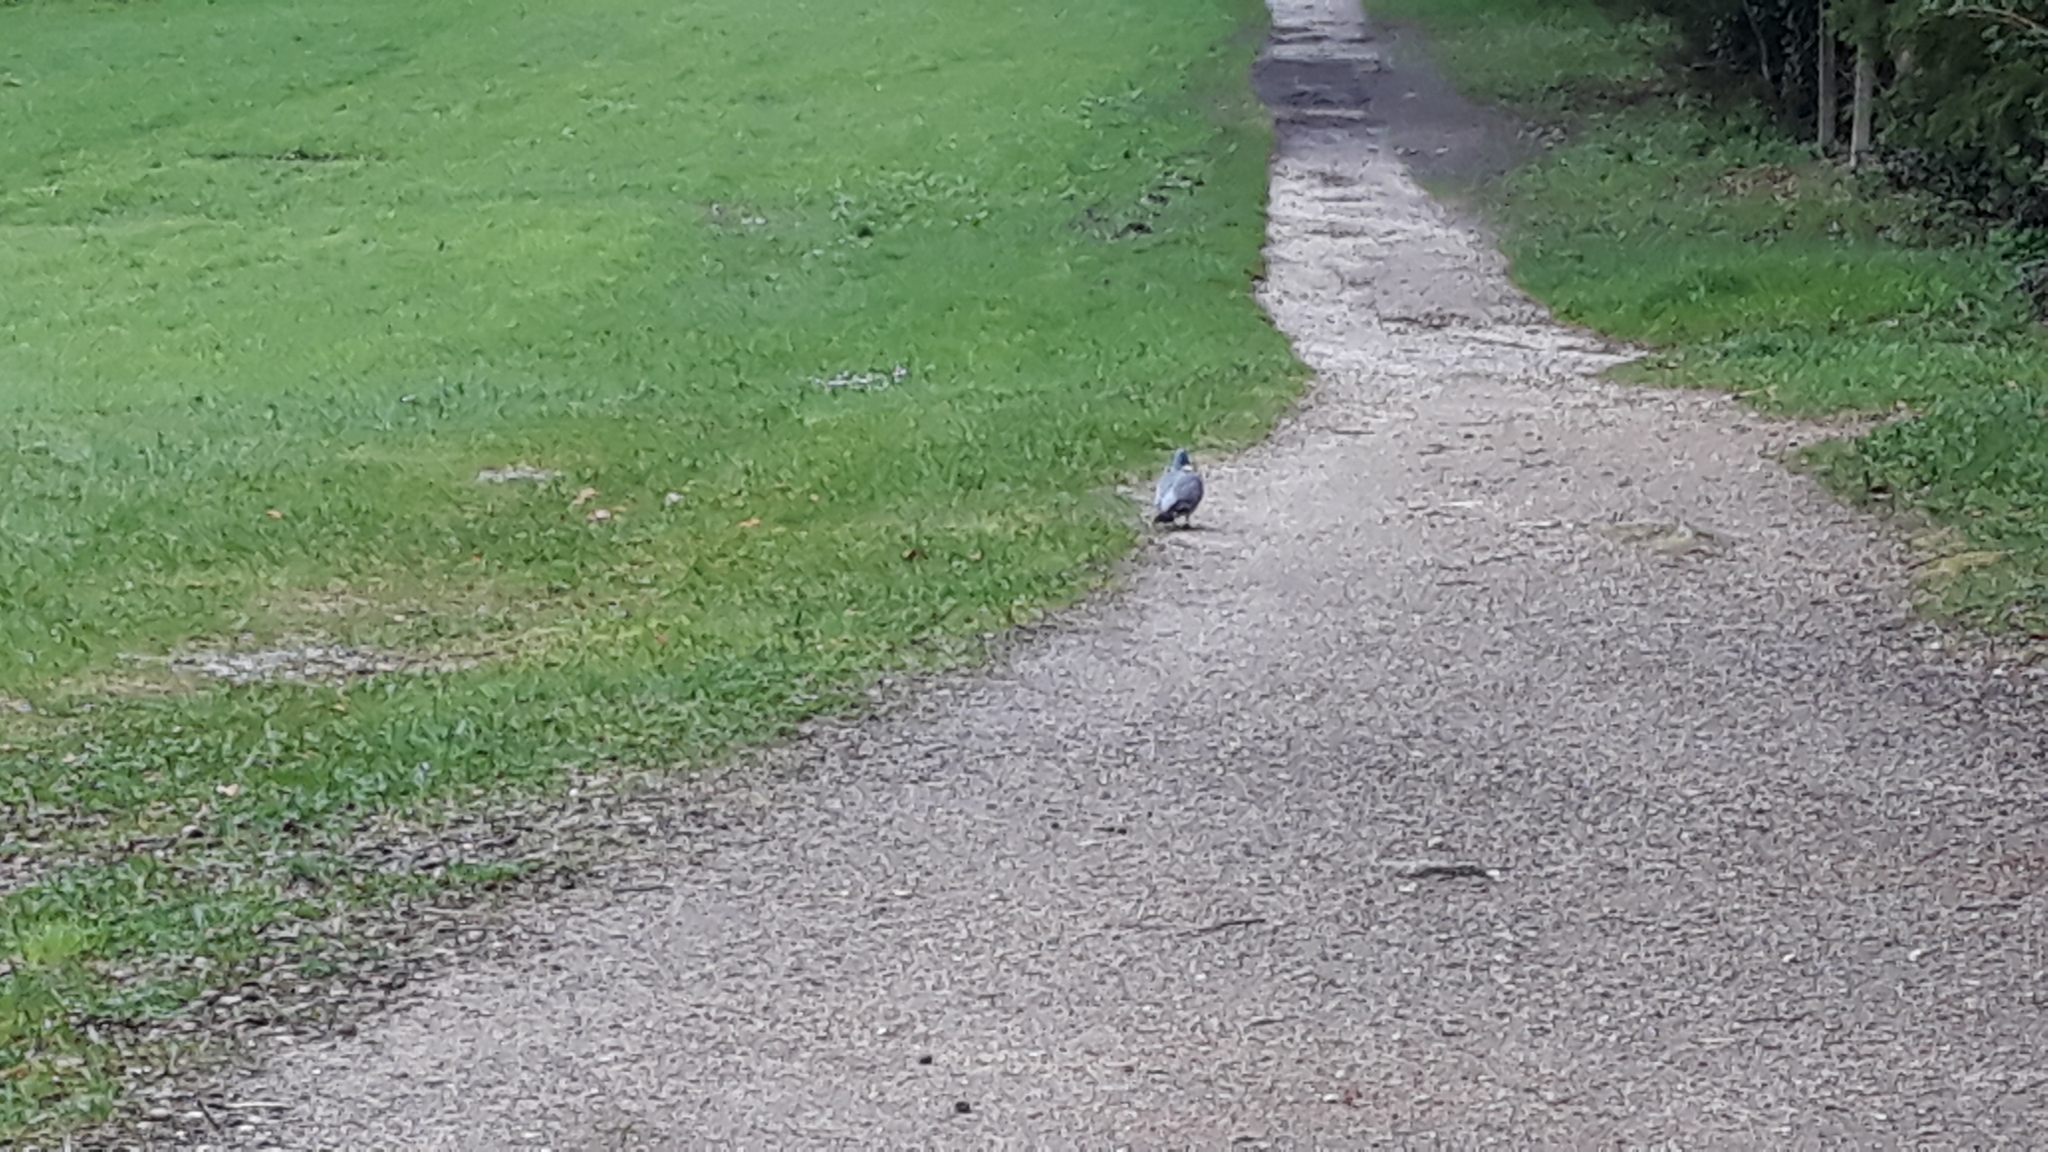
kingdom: Animalia
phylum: Chordata
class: Aves
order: Columbiformes
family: Columbidae
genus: Columba
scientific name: Columba palumbus
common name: Common wood pigeon
